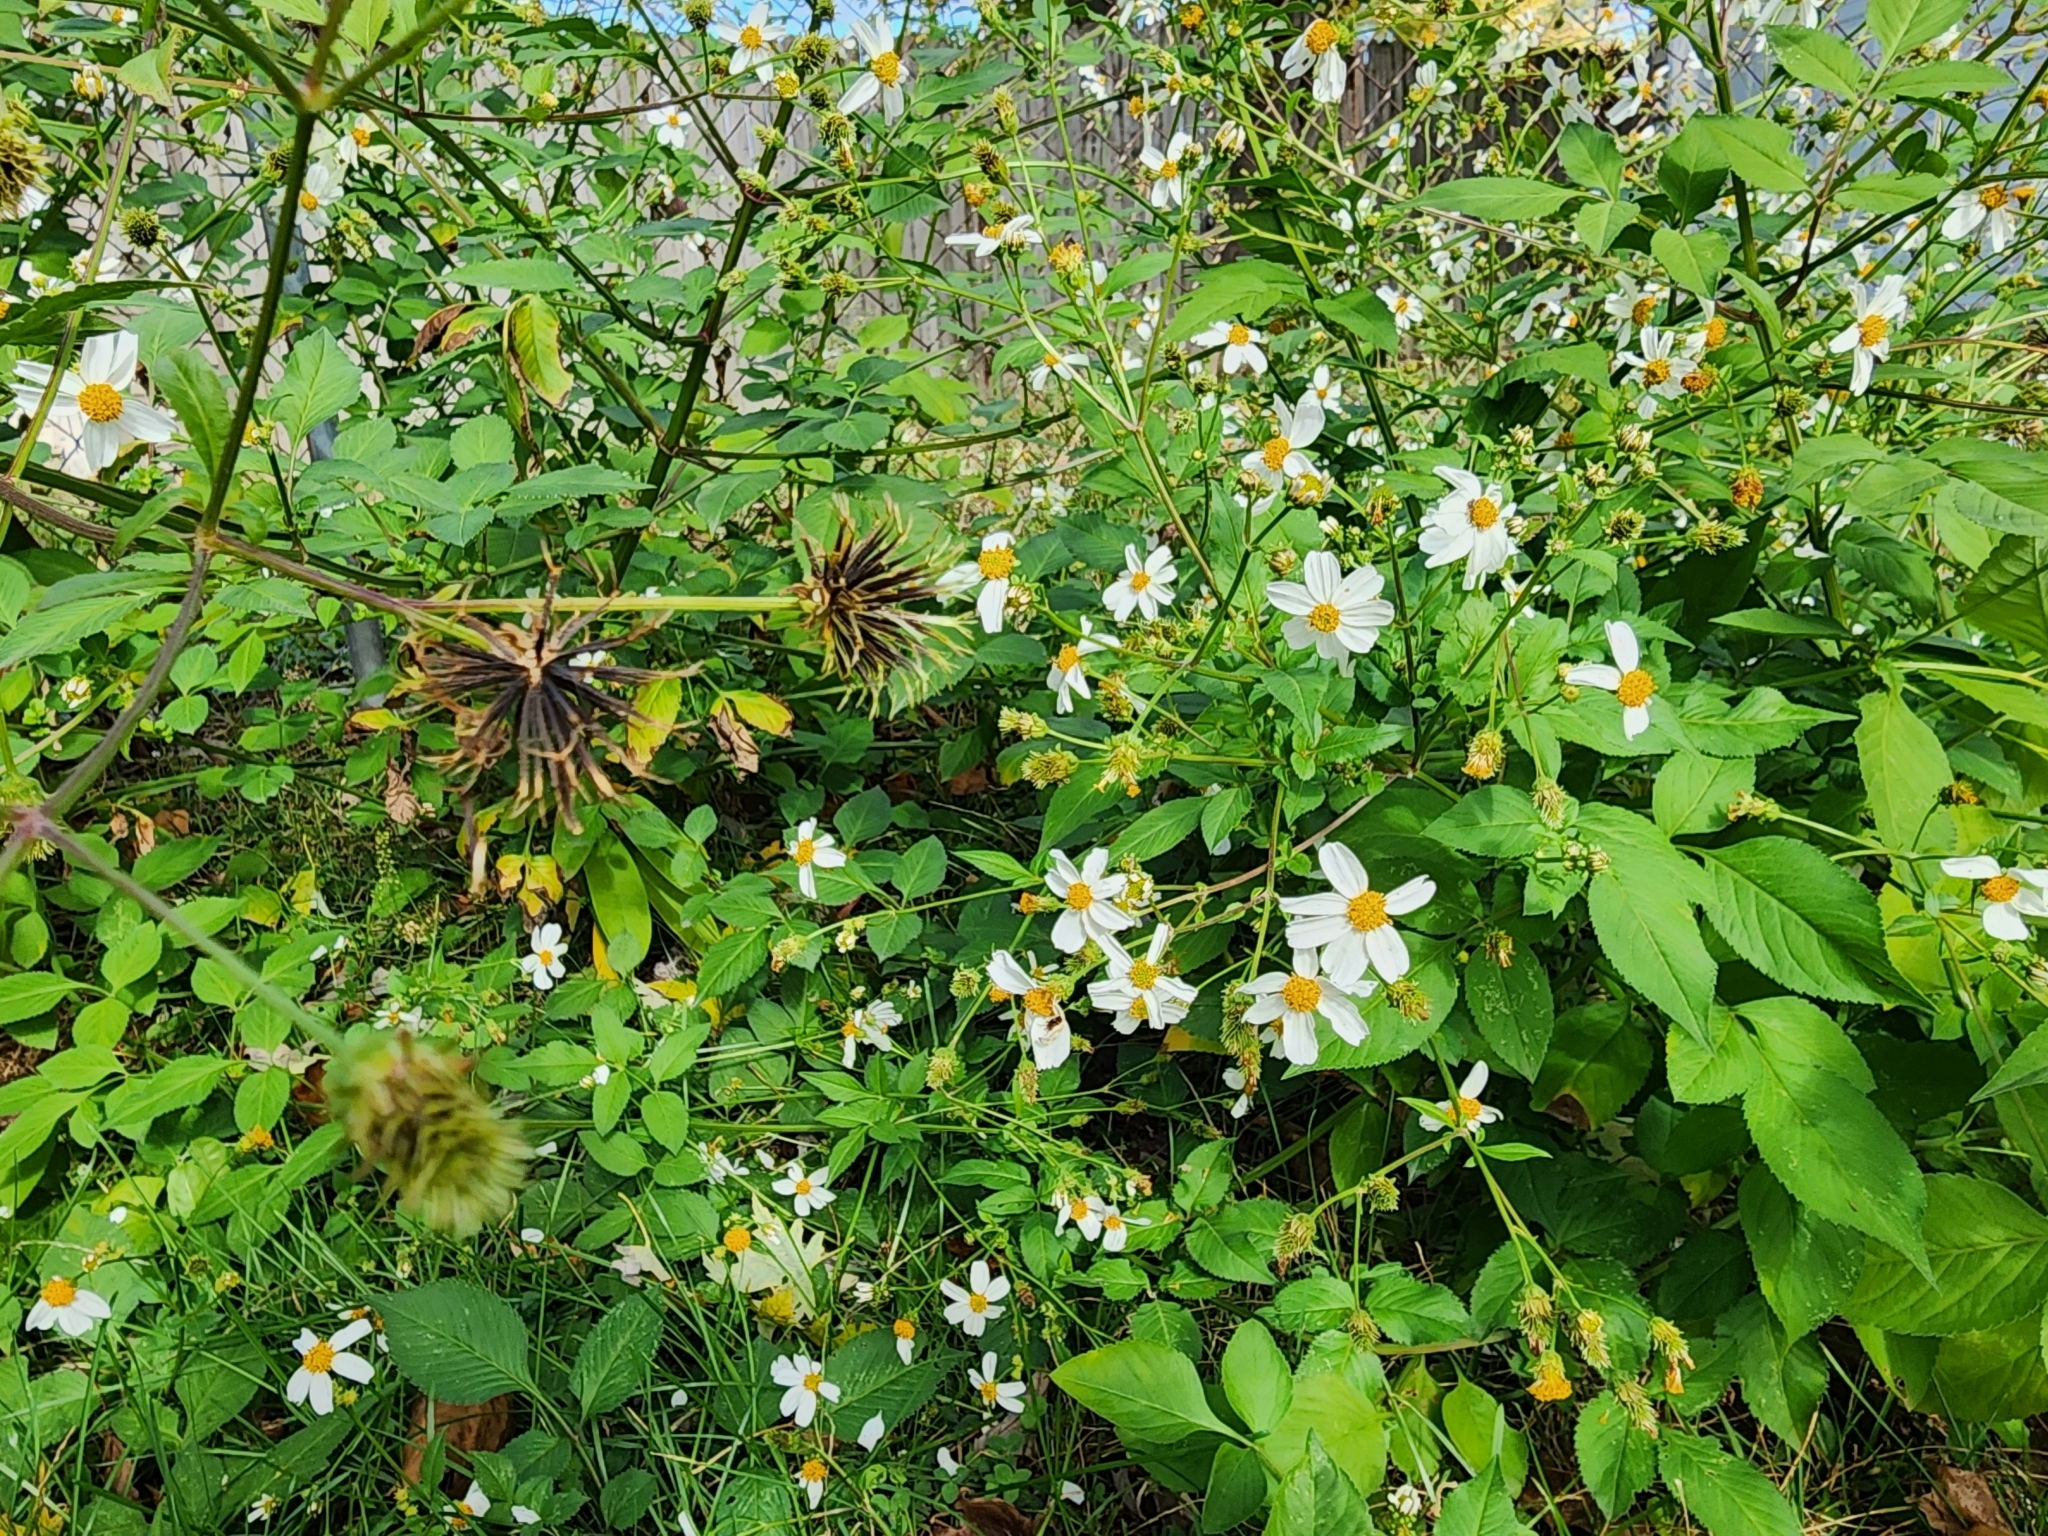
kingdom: Plantae
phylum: Tracheophyta
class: Magnoliopsida
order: Asterales
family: Asteraceae
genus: Bidens
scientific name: Bidens alba
